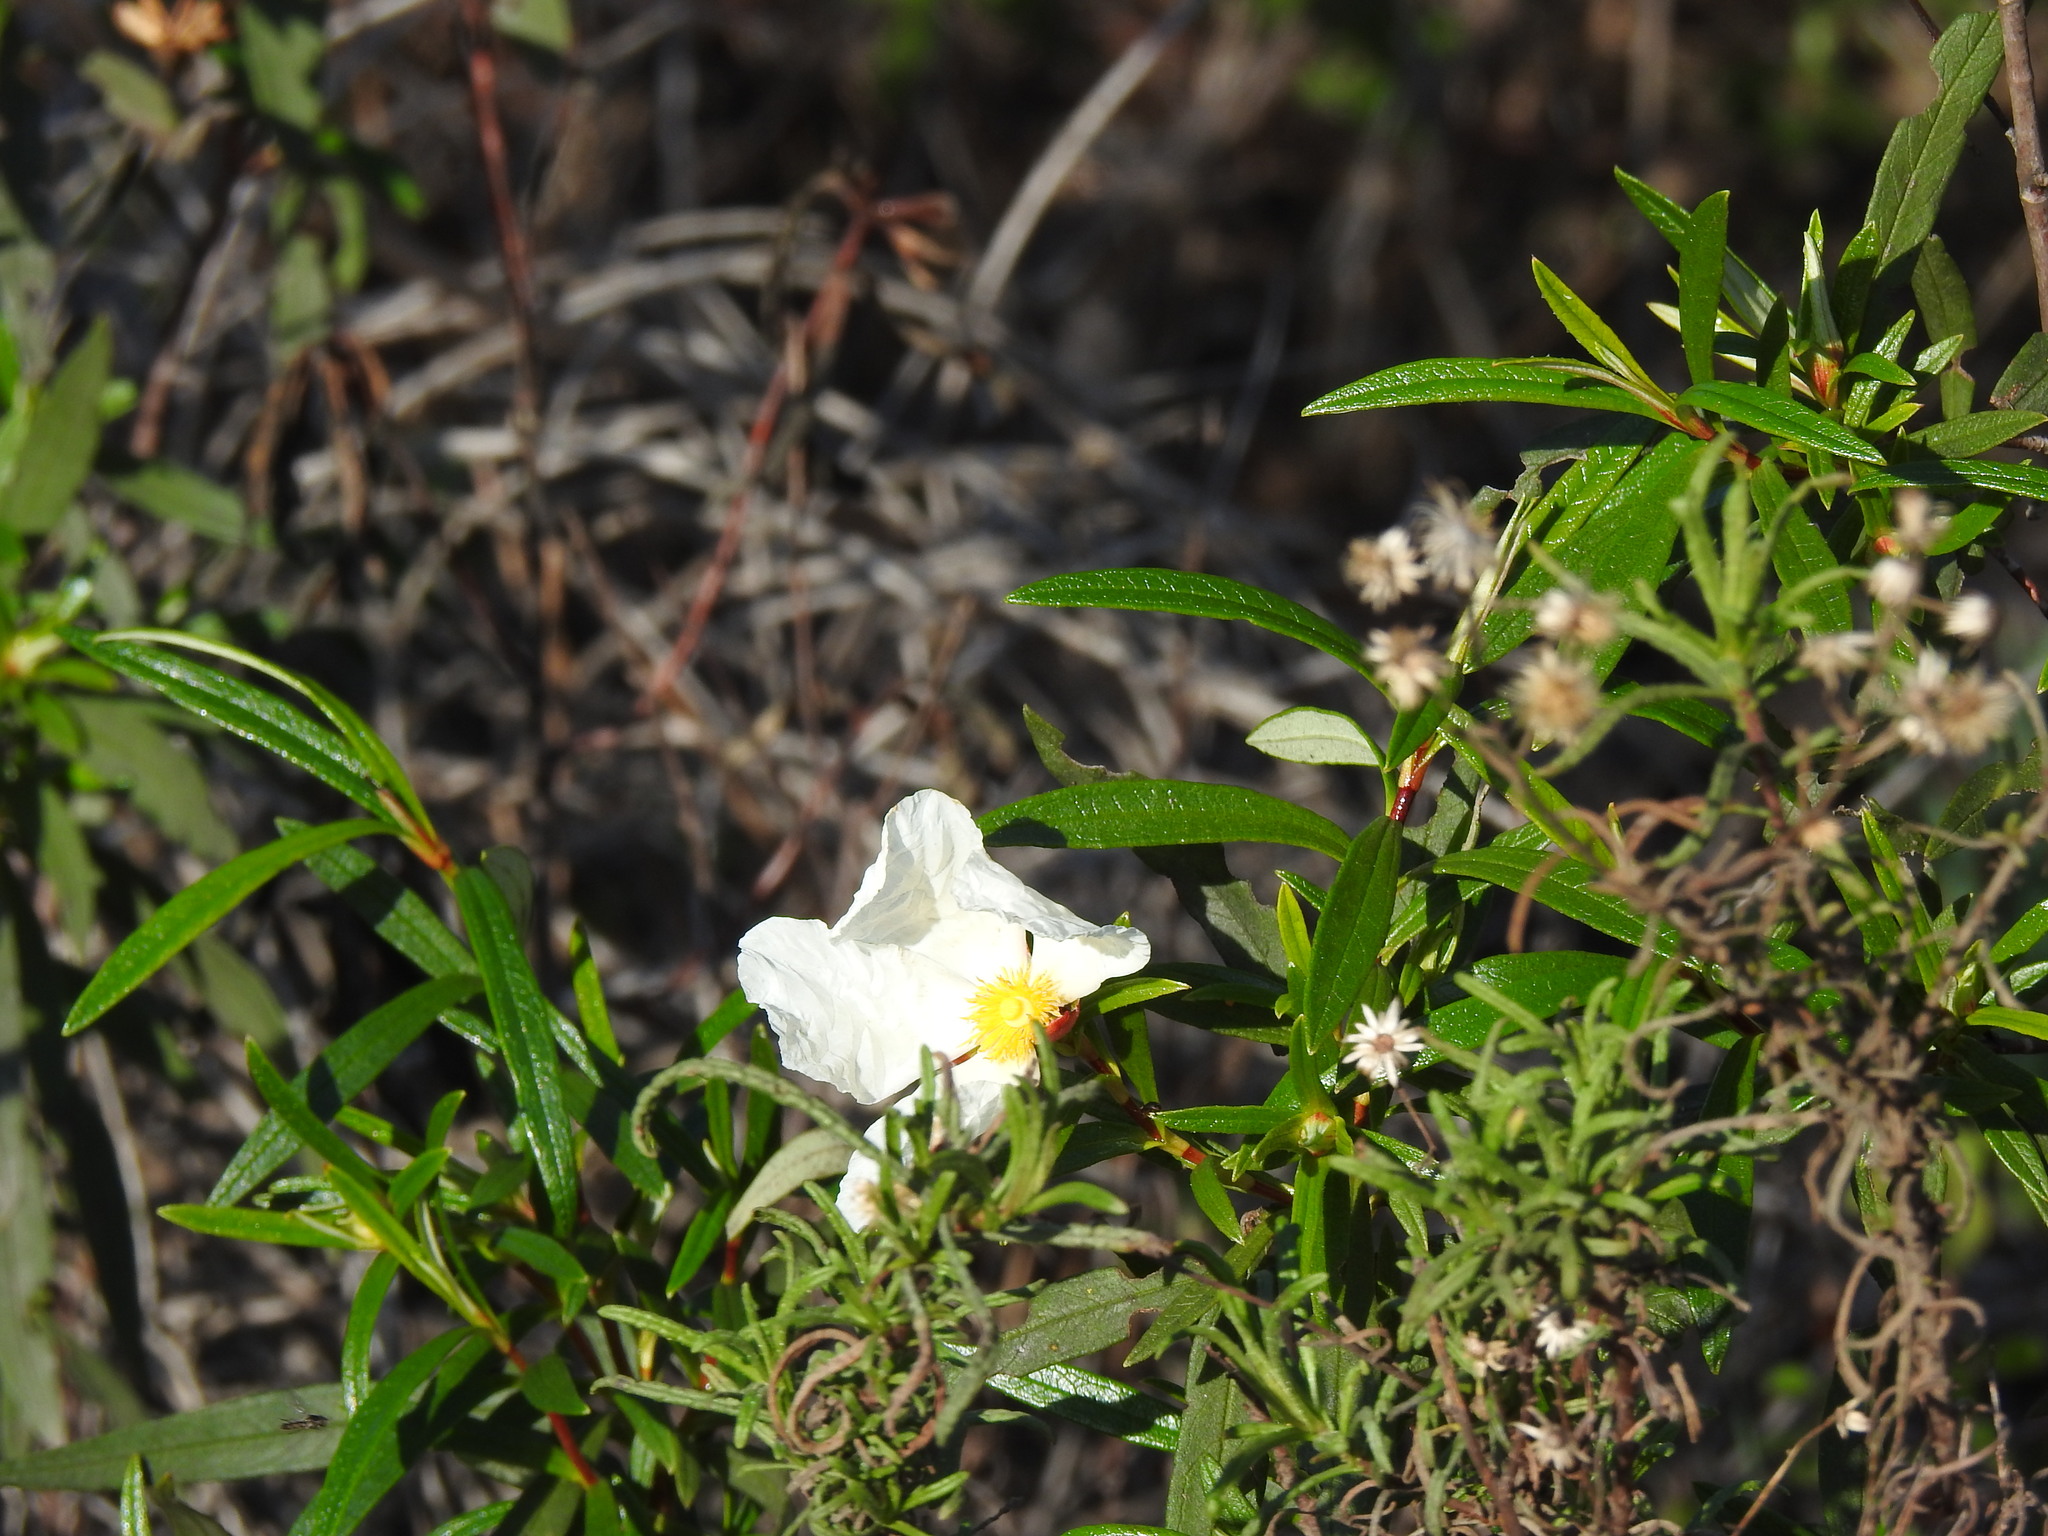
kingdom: Plantae
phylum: Tracheophyta
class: Magnoliopsida
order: Malvales
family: Cistaceae
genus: Cistus
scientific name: Cistus ladanifer
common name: Common gum cistus
